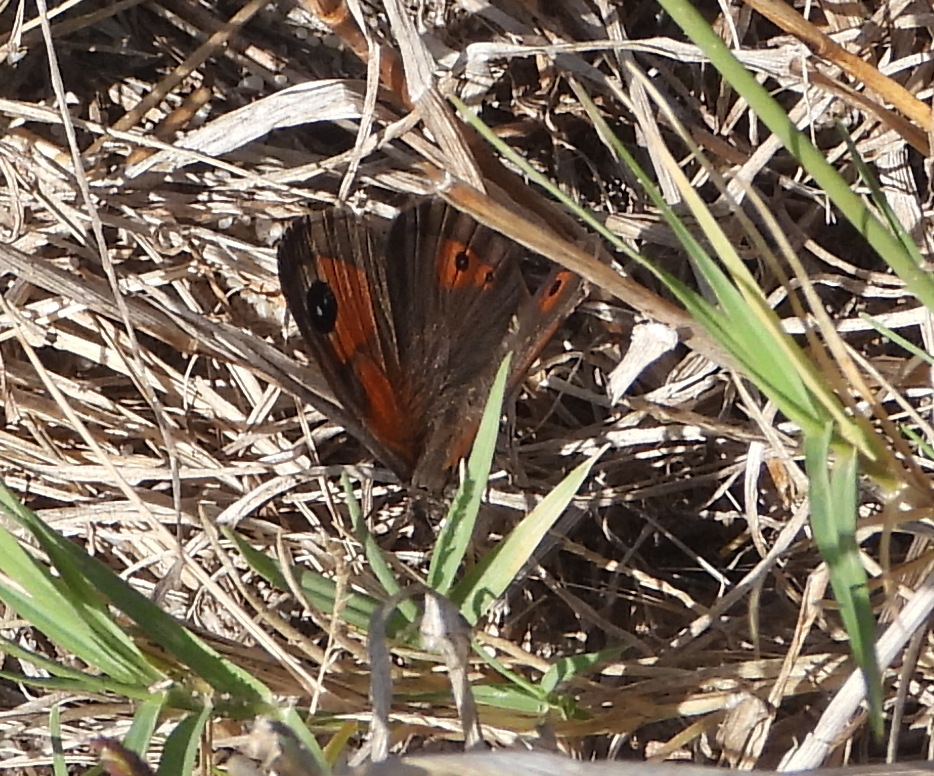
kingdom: Animalia
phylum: Arthropoda
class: Insecta
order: Lepidoptera
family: Nymphalidae
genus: Pseudonympha
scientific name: Pseudonympha magus
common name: Silver-bottom brown
